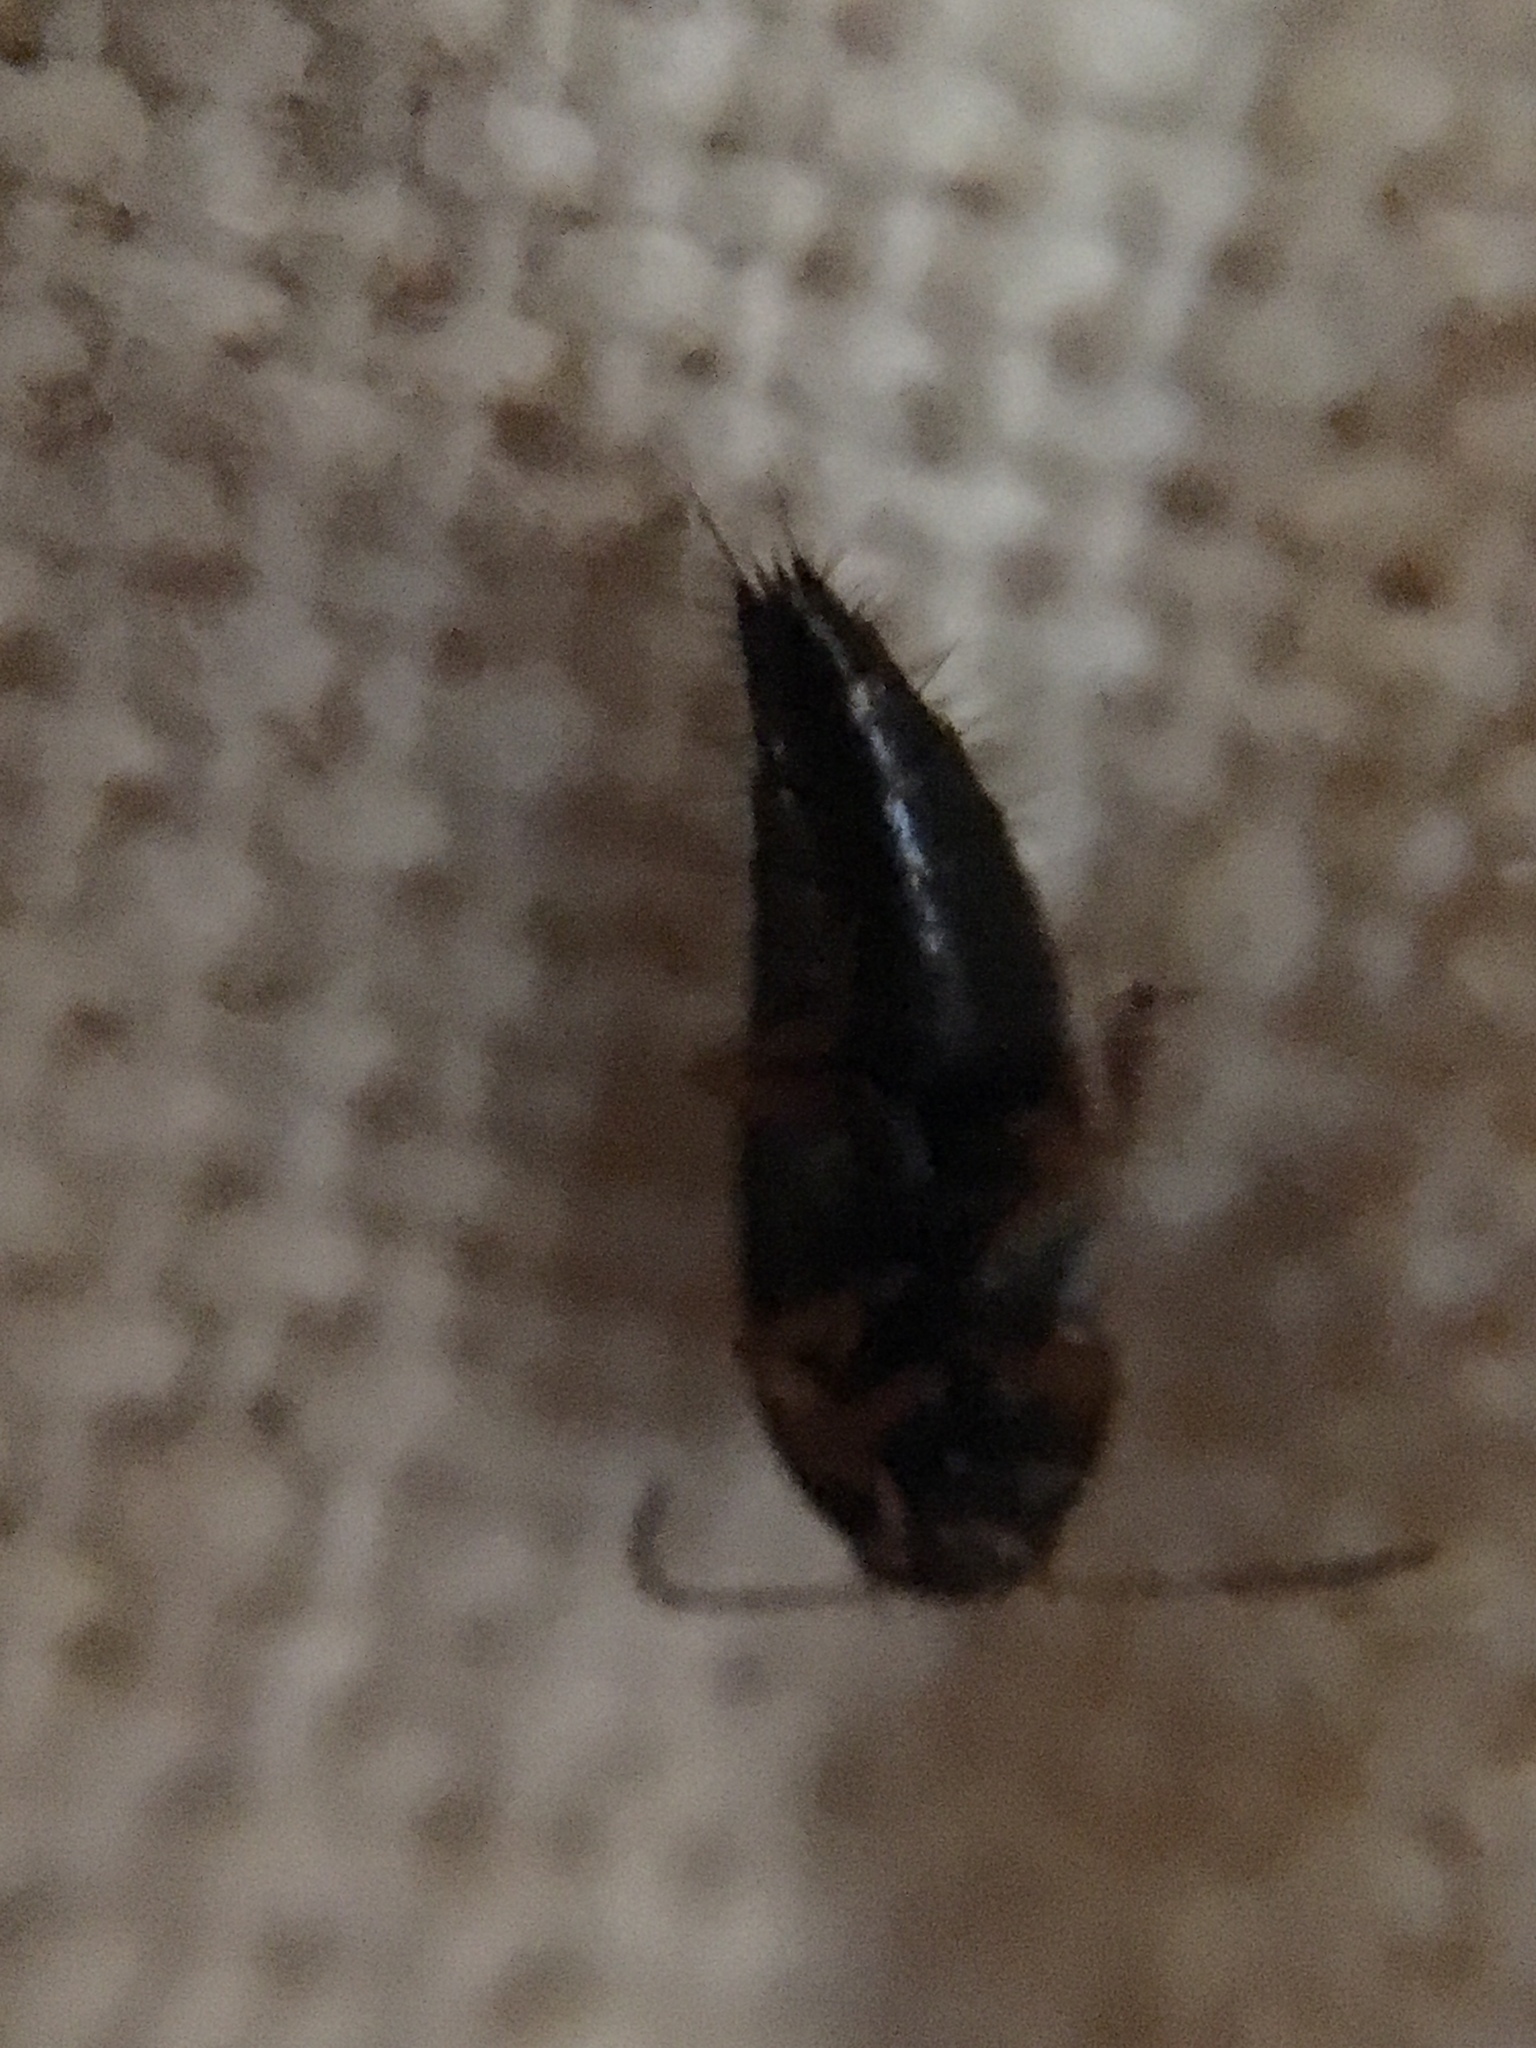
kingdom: Animalia
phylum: Arthropoda
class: Insecta
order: Coleoptera
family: Staphylinidae
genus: Tachyporus
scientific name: Tachyporus hypnorum
